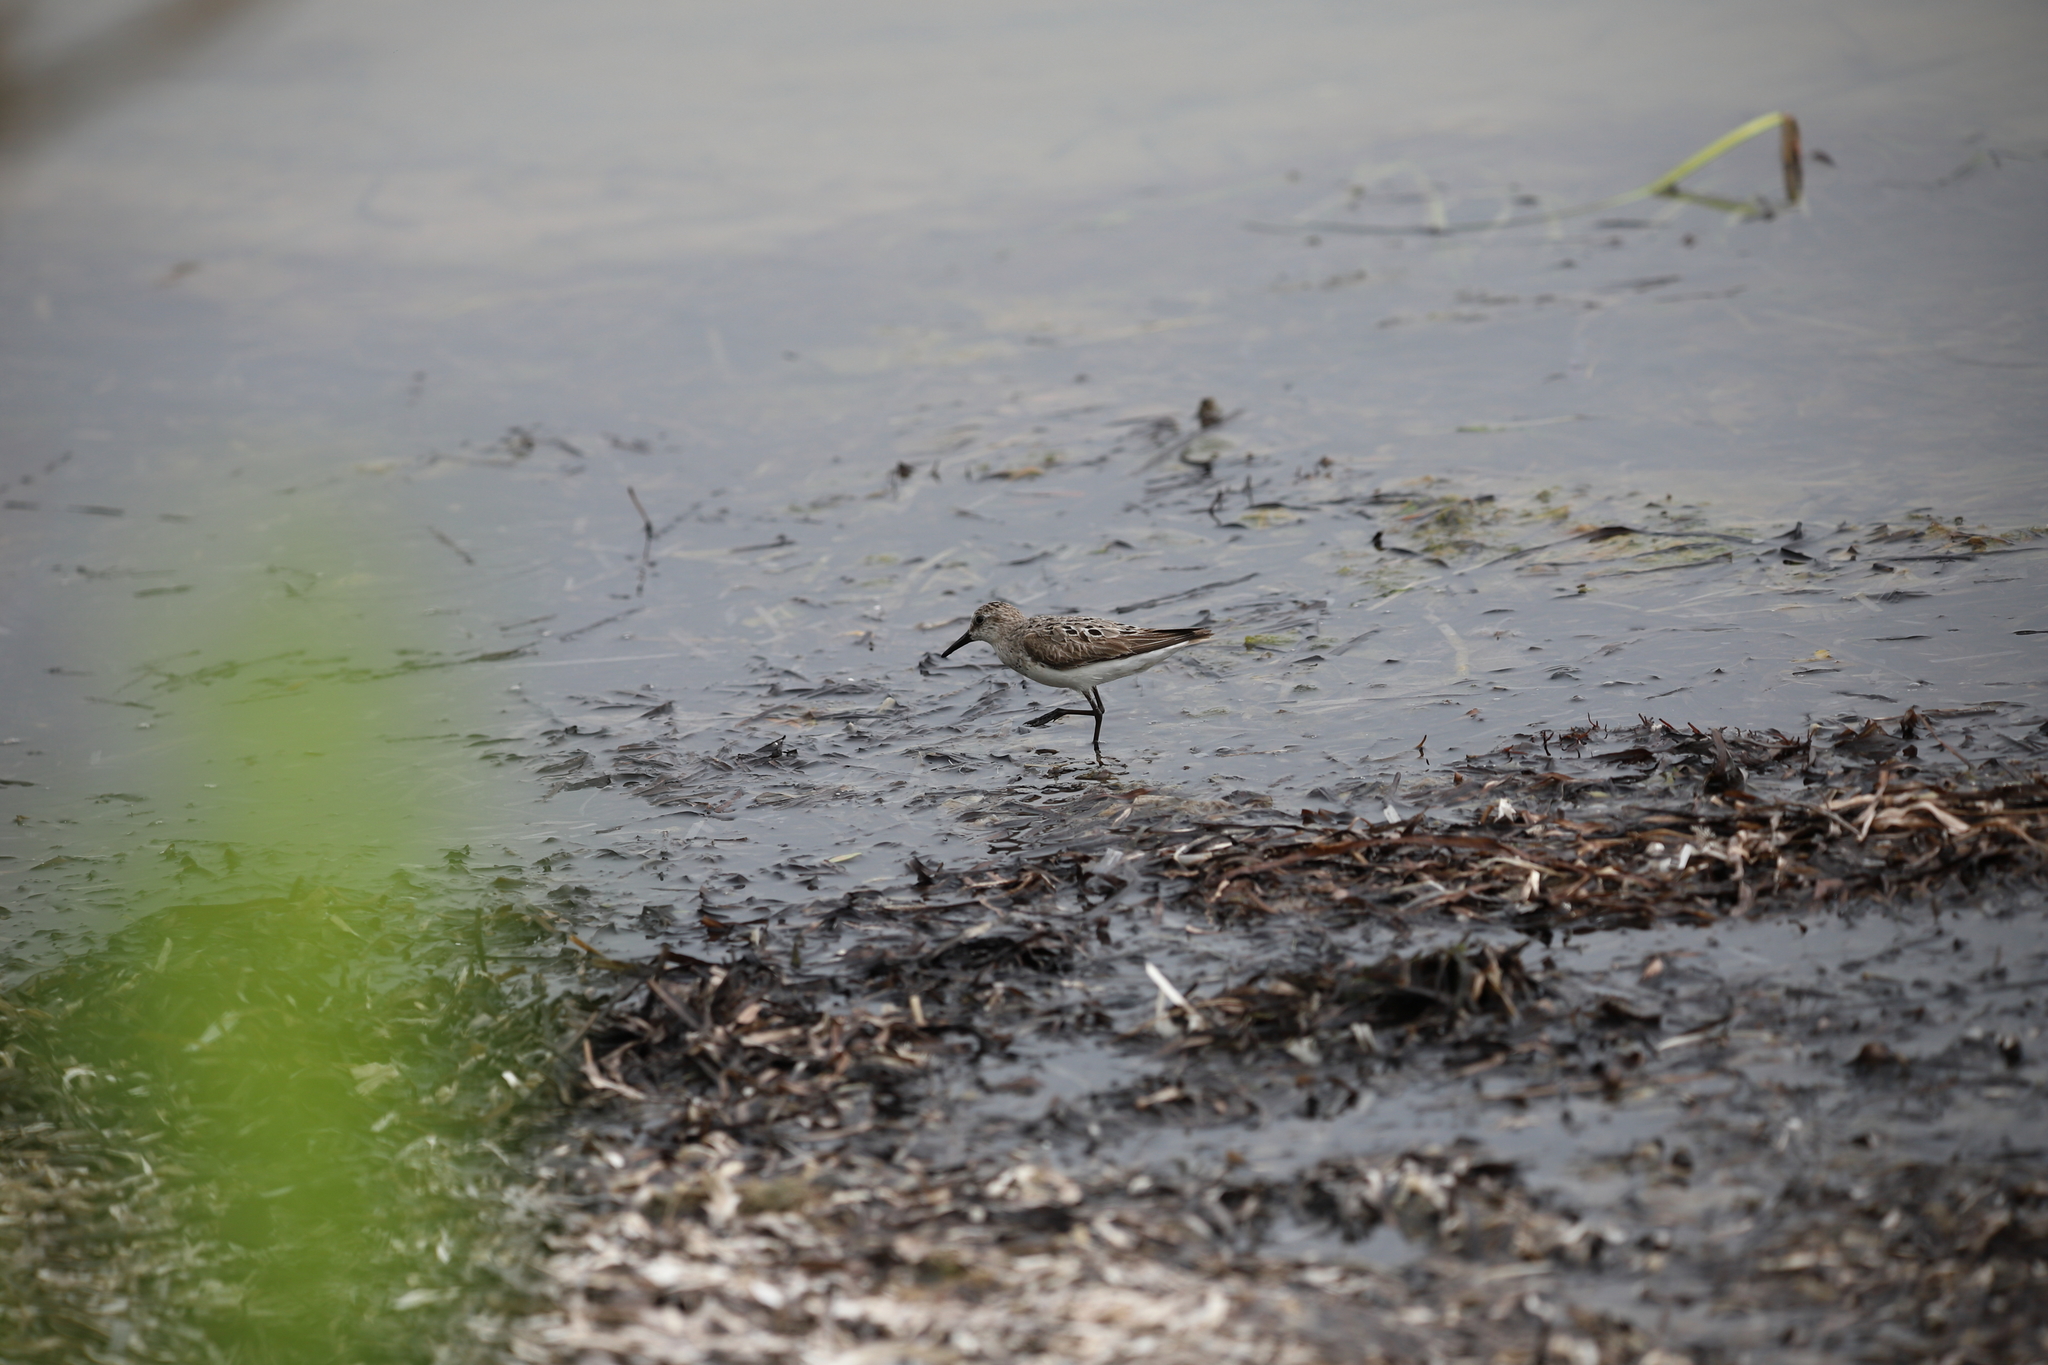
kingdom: Animalia
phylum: Chordata
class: Aves
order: Charadriiformes
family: Scolopacidae
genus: Calidris
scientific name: Calidris pusilla
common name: Semipalmated sandpiper
